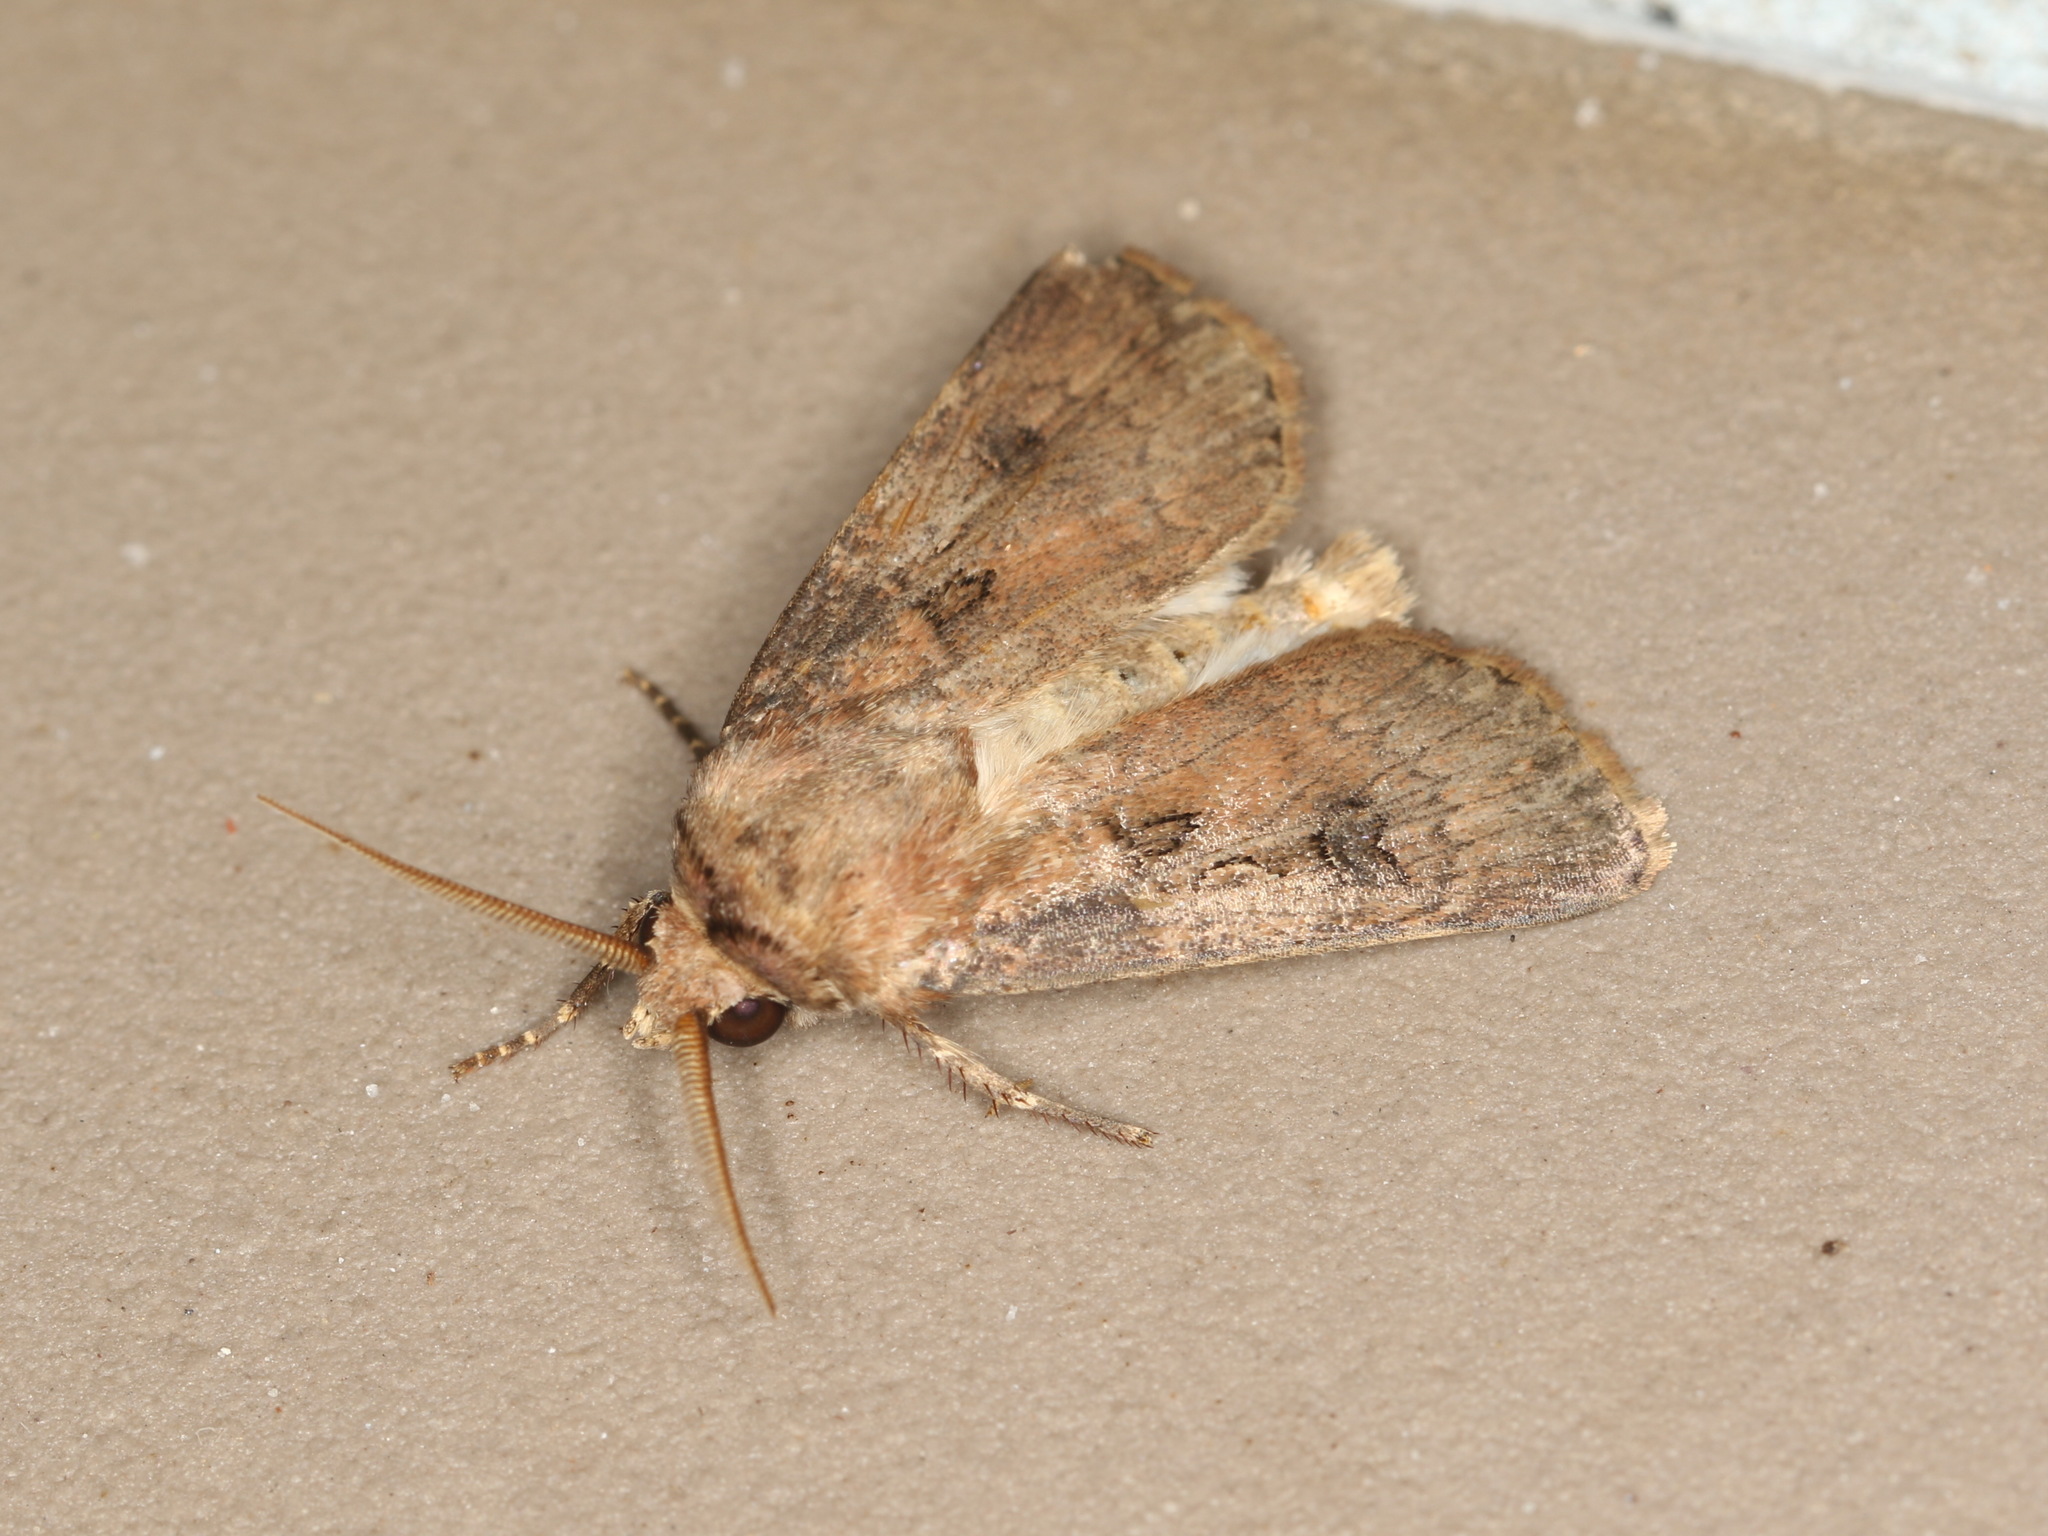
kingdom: Animalia
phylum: Arthropoda
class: Insecta
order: Lepidoptera
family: Noctuidae
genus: Agrotis
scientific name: Agrotis munda
